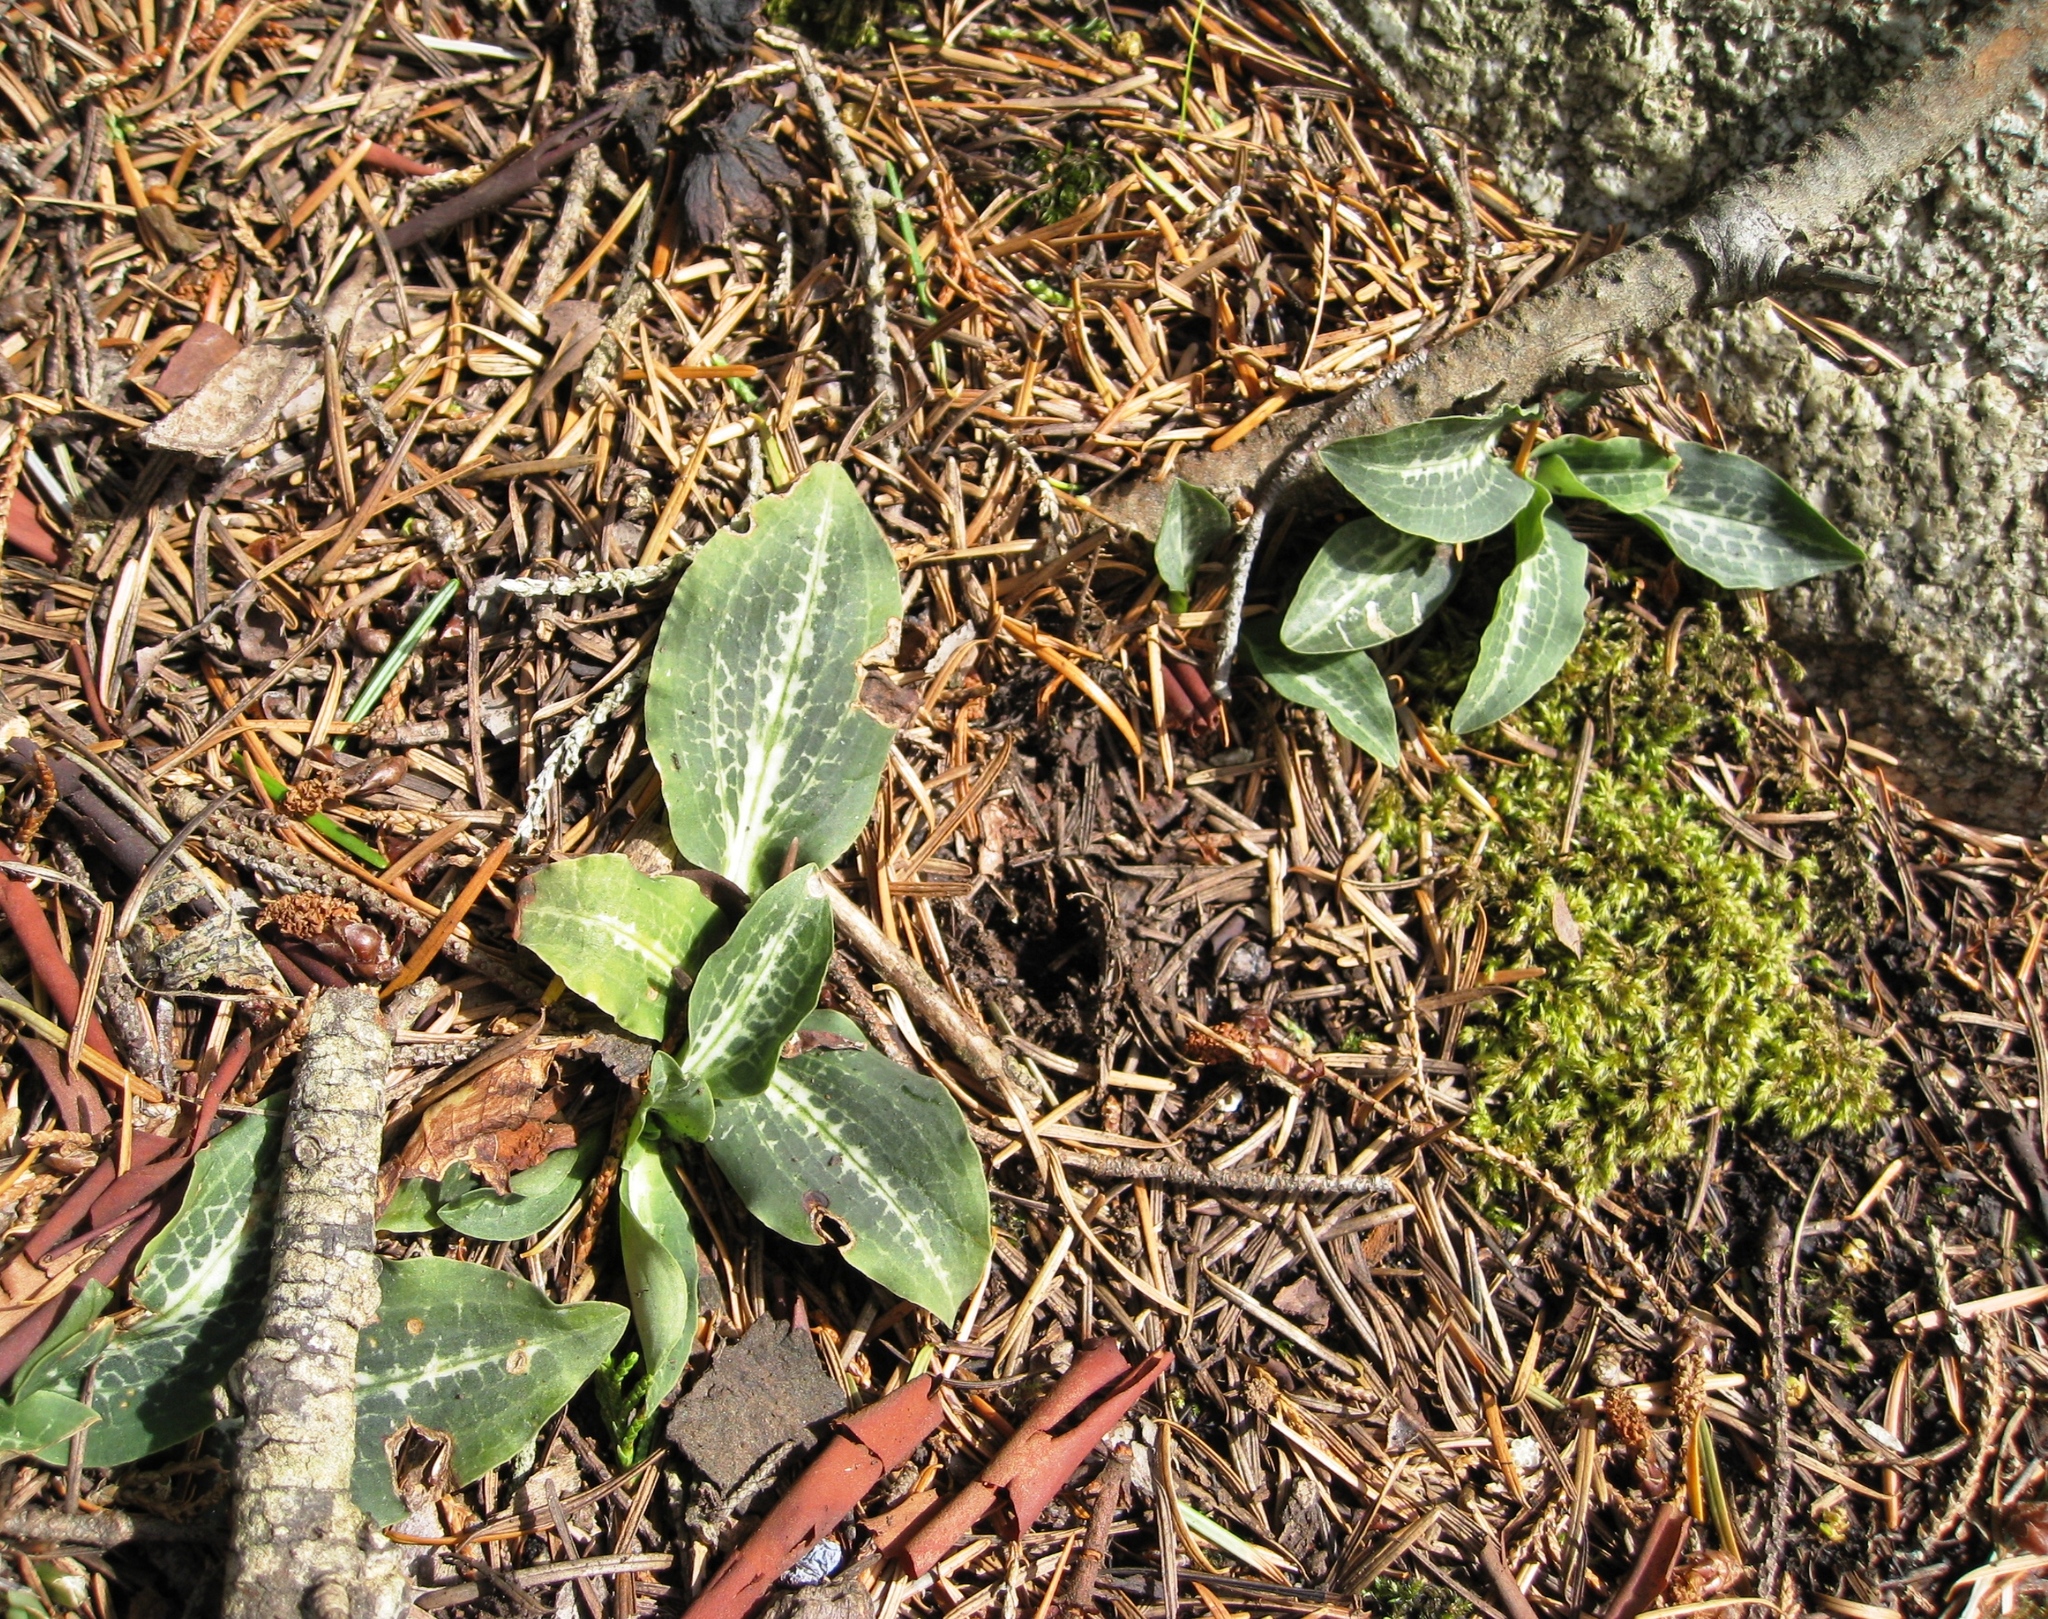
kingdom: Plantae
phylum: Tracheophyta
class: Liliopsida
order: Asparagales
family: Orchidaceae
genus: Goodyera
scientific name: Goodyera oblongifolia
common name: Giant rattlesnake-plantain
